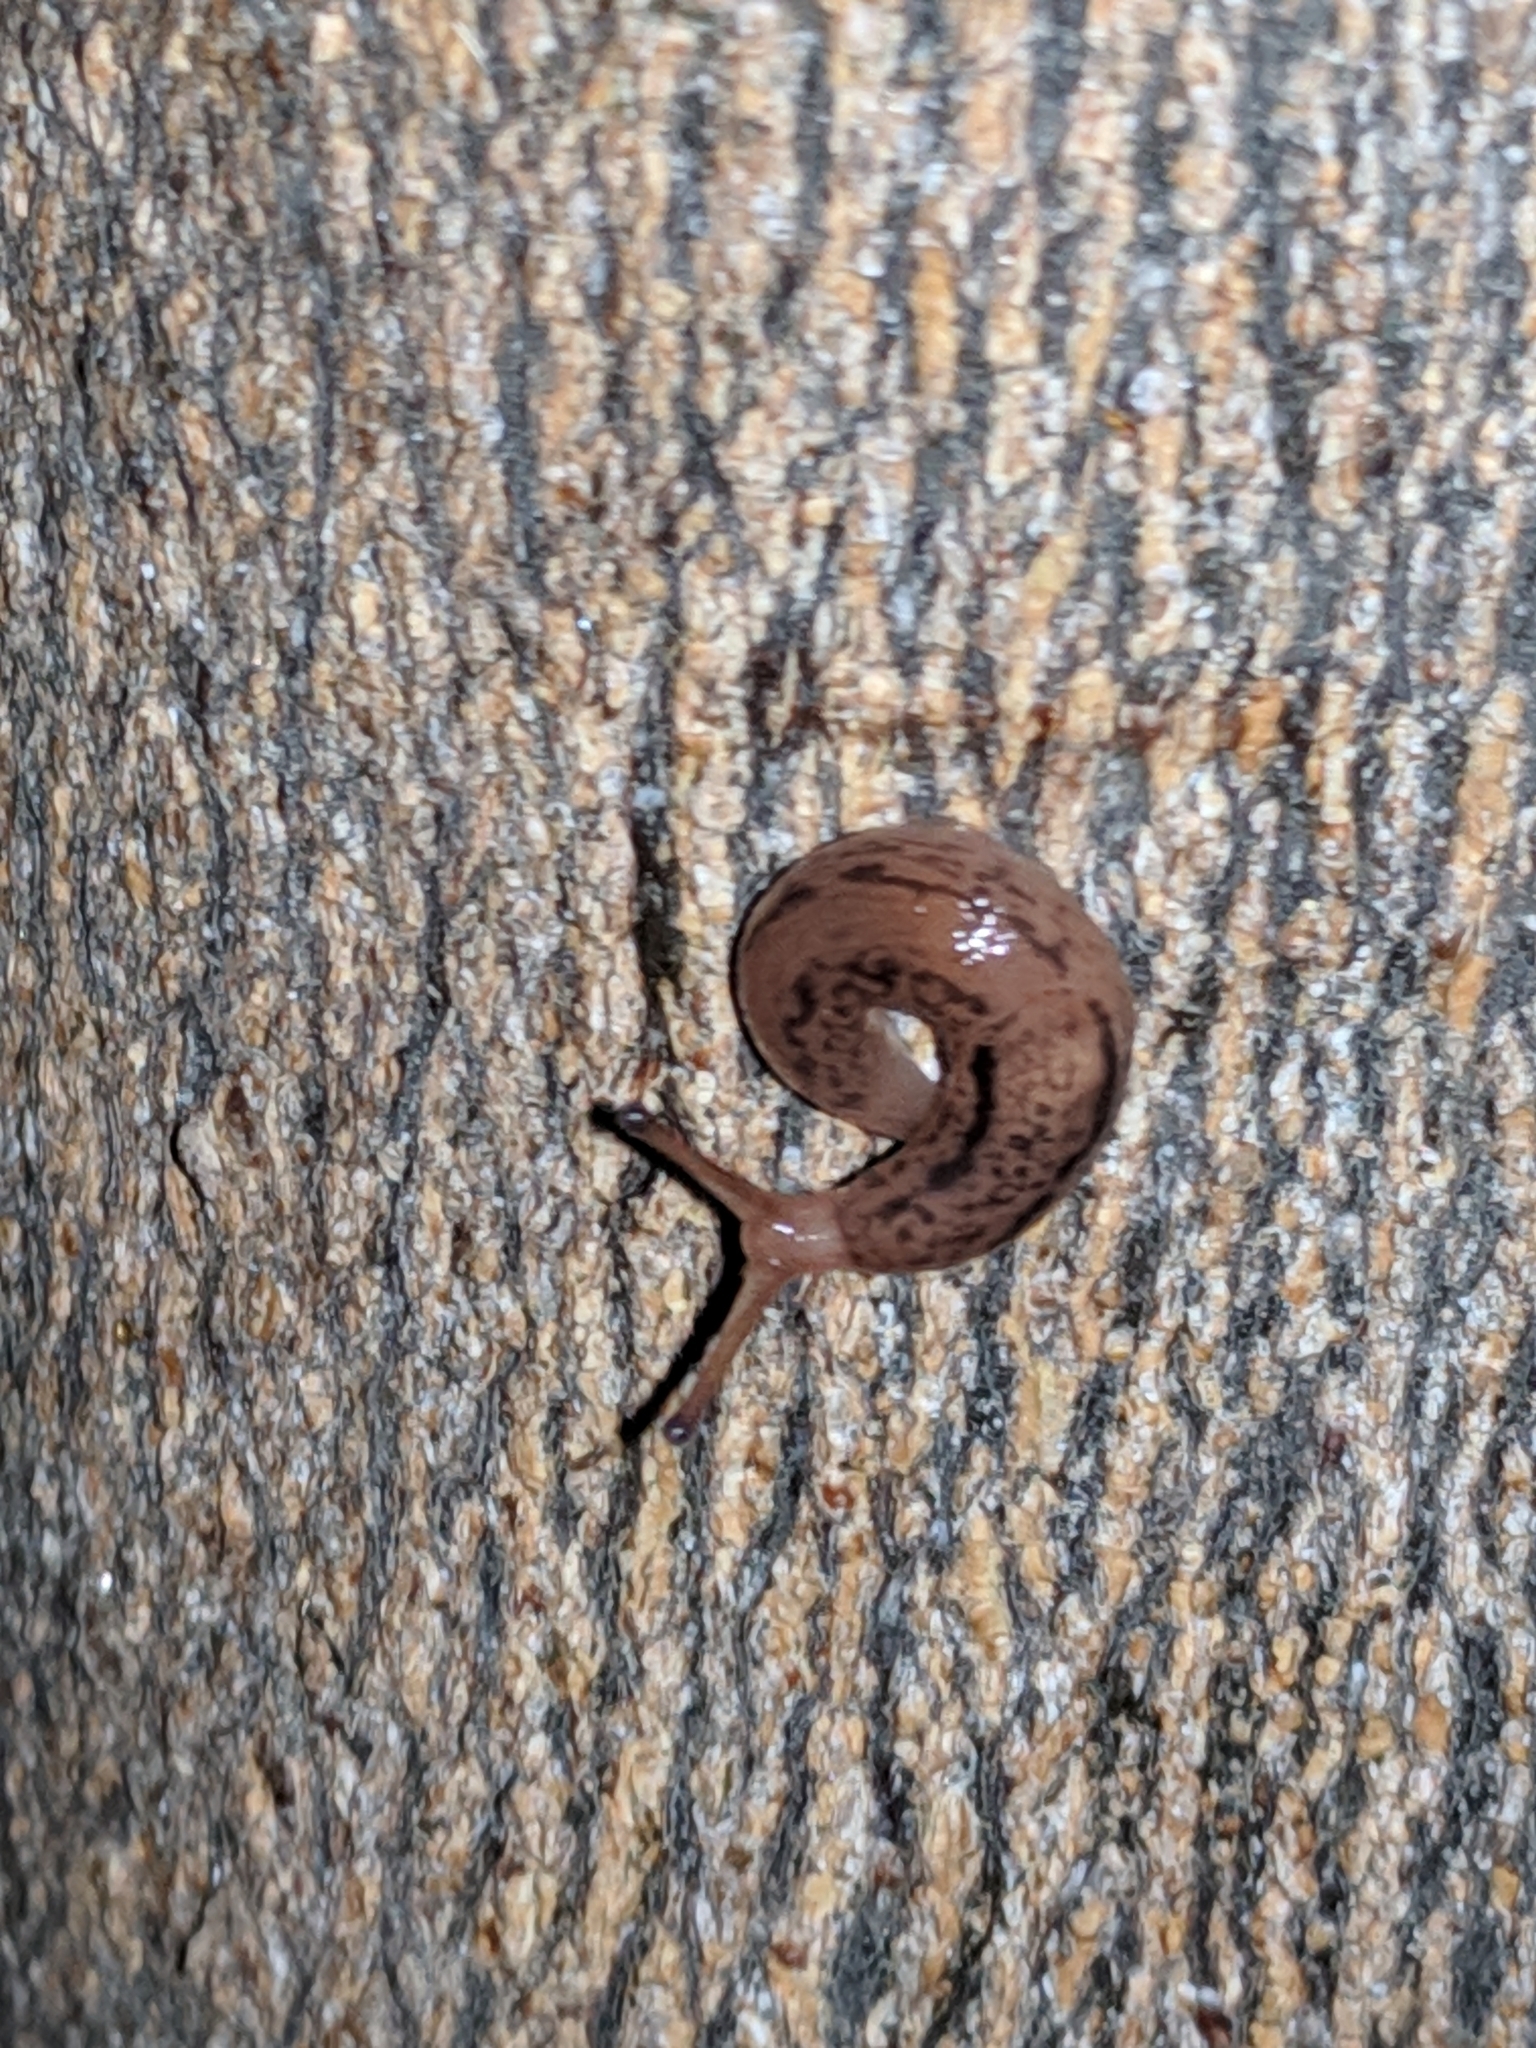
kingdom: Animalia
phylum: Mollusca
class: Gastropoda
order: Stylommatophora
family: Limacidae
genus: Ambigolimax
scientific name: Ambigolimax
